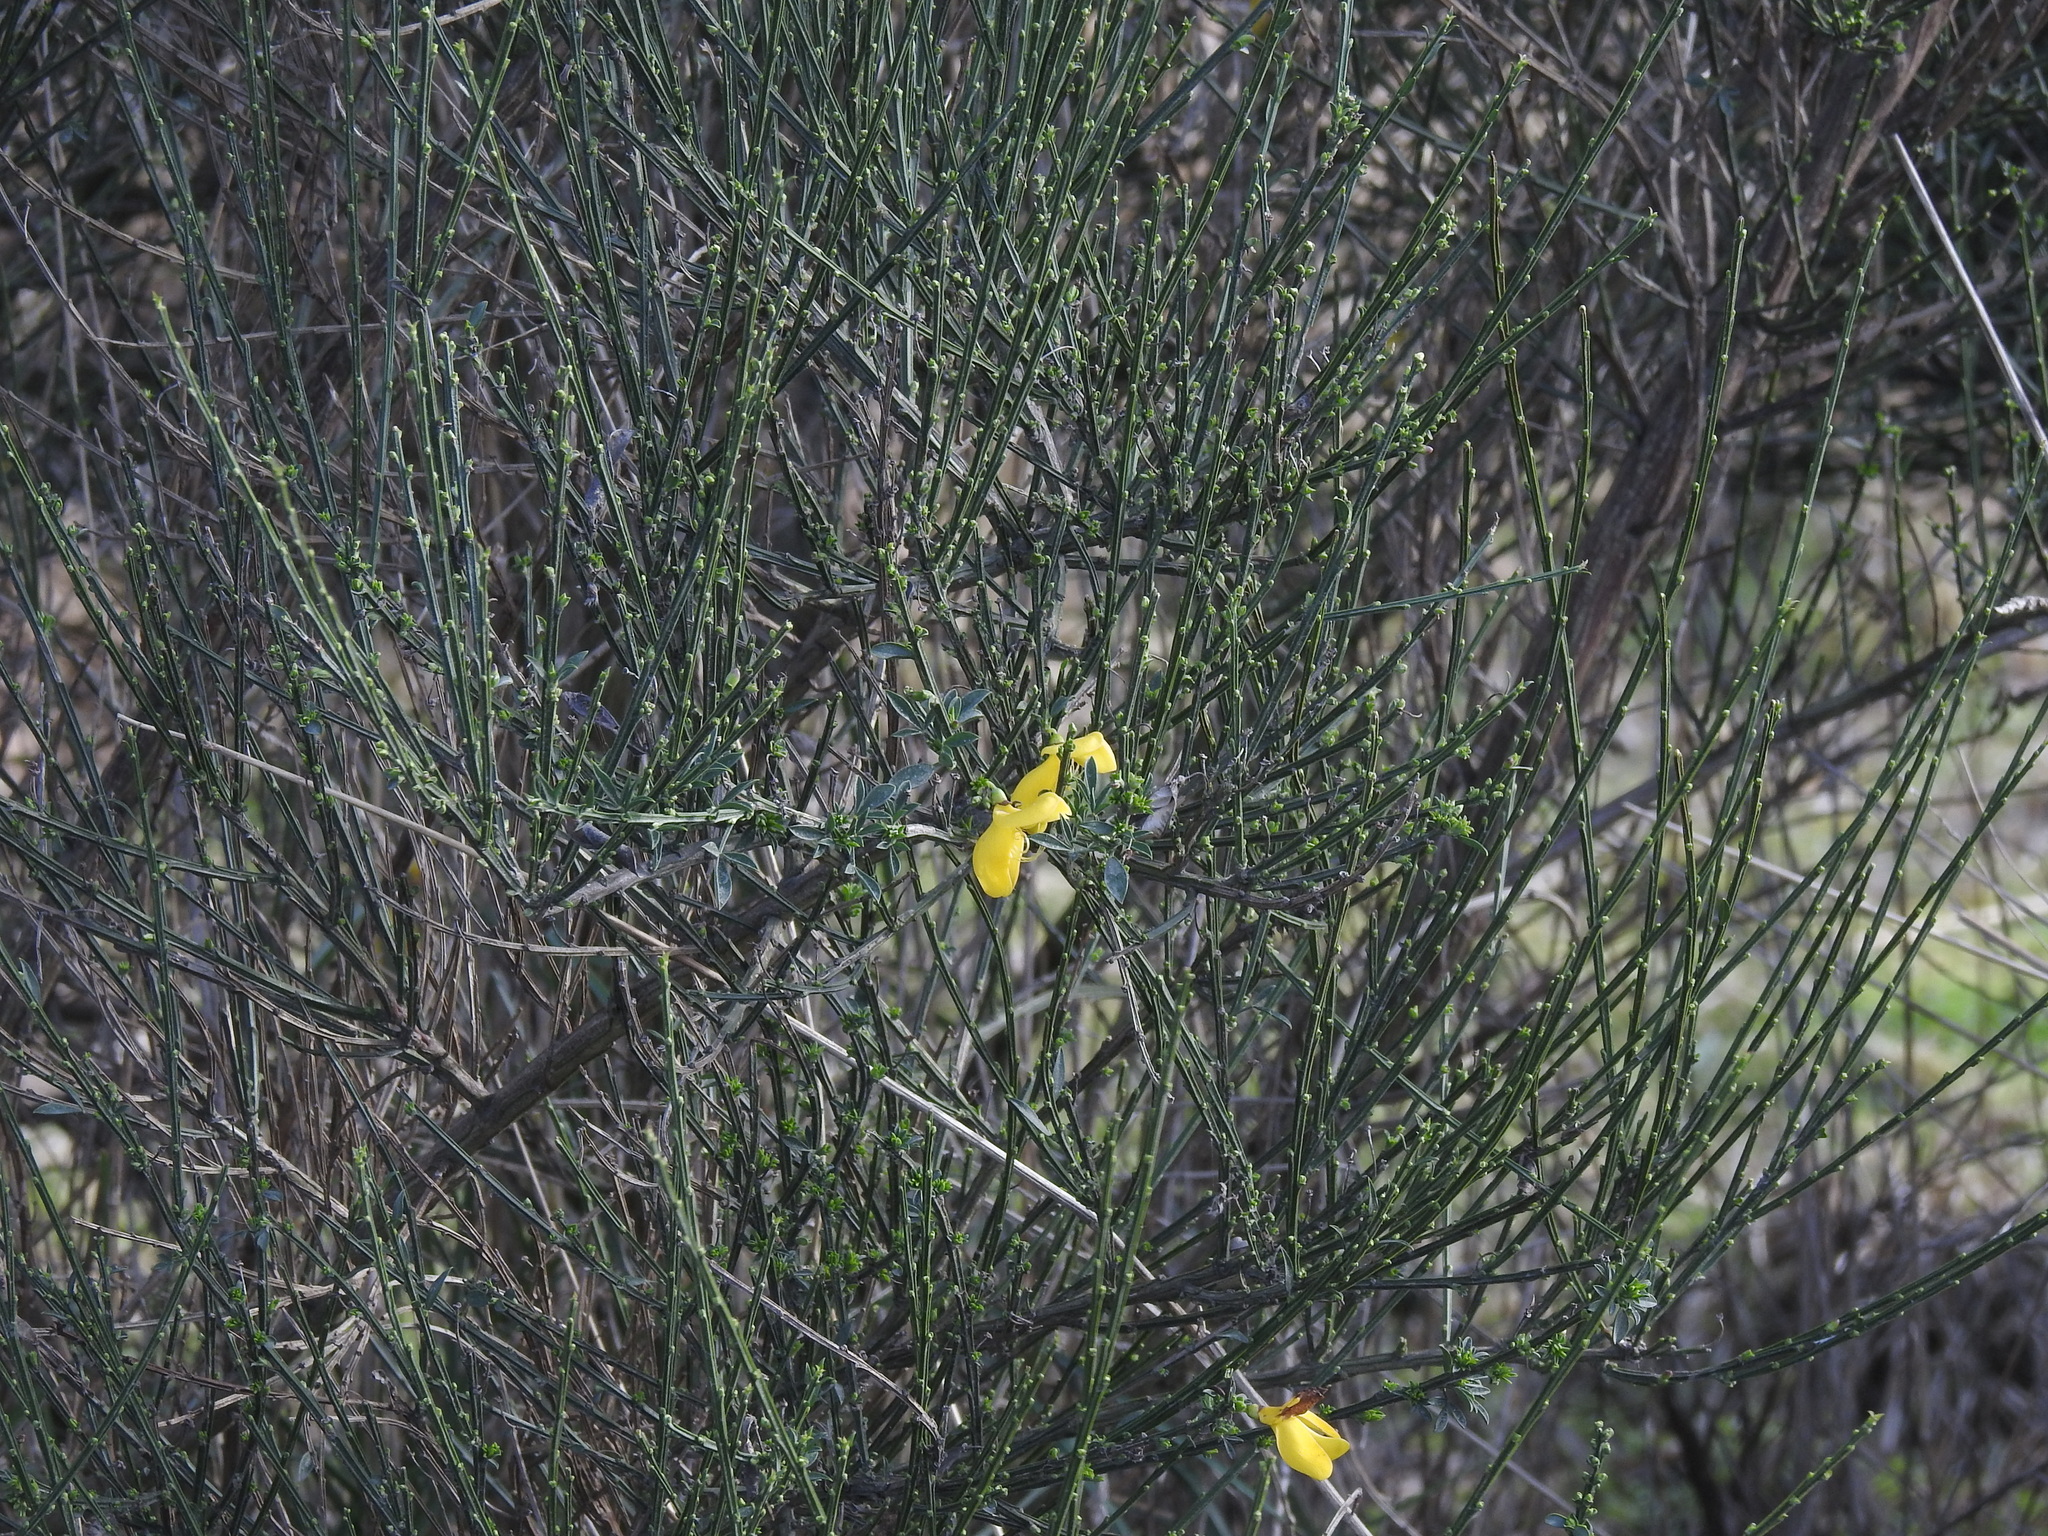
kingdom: Plantae
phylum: Tracheophyta
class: Magnoliopsida
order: Fabales
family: Fabaceae
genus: Cytisus
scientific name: Cytisus scoparius
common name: Scotch broom
